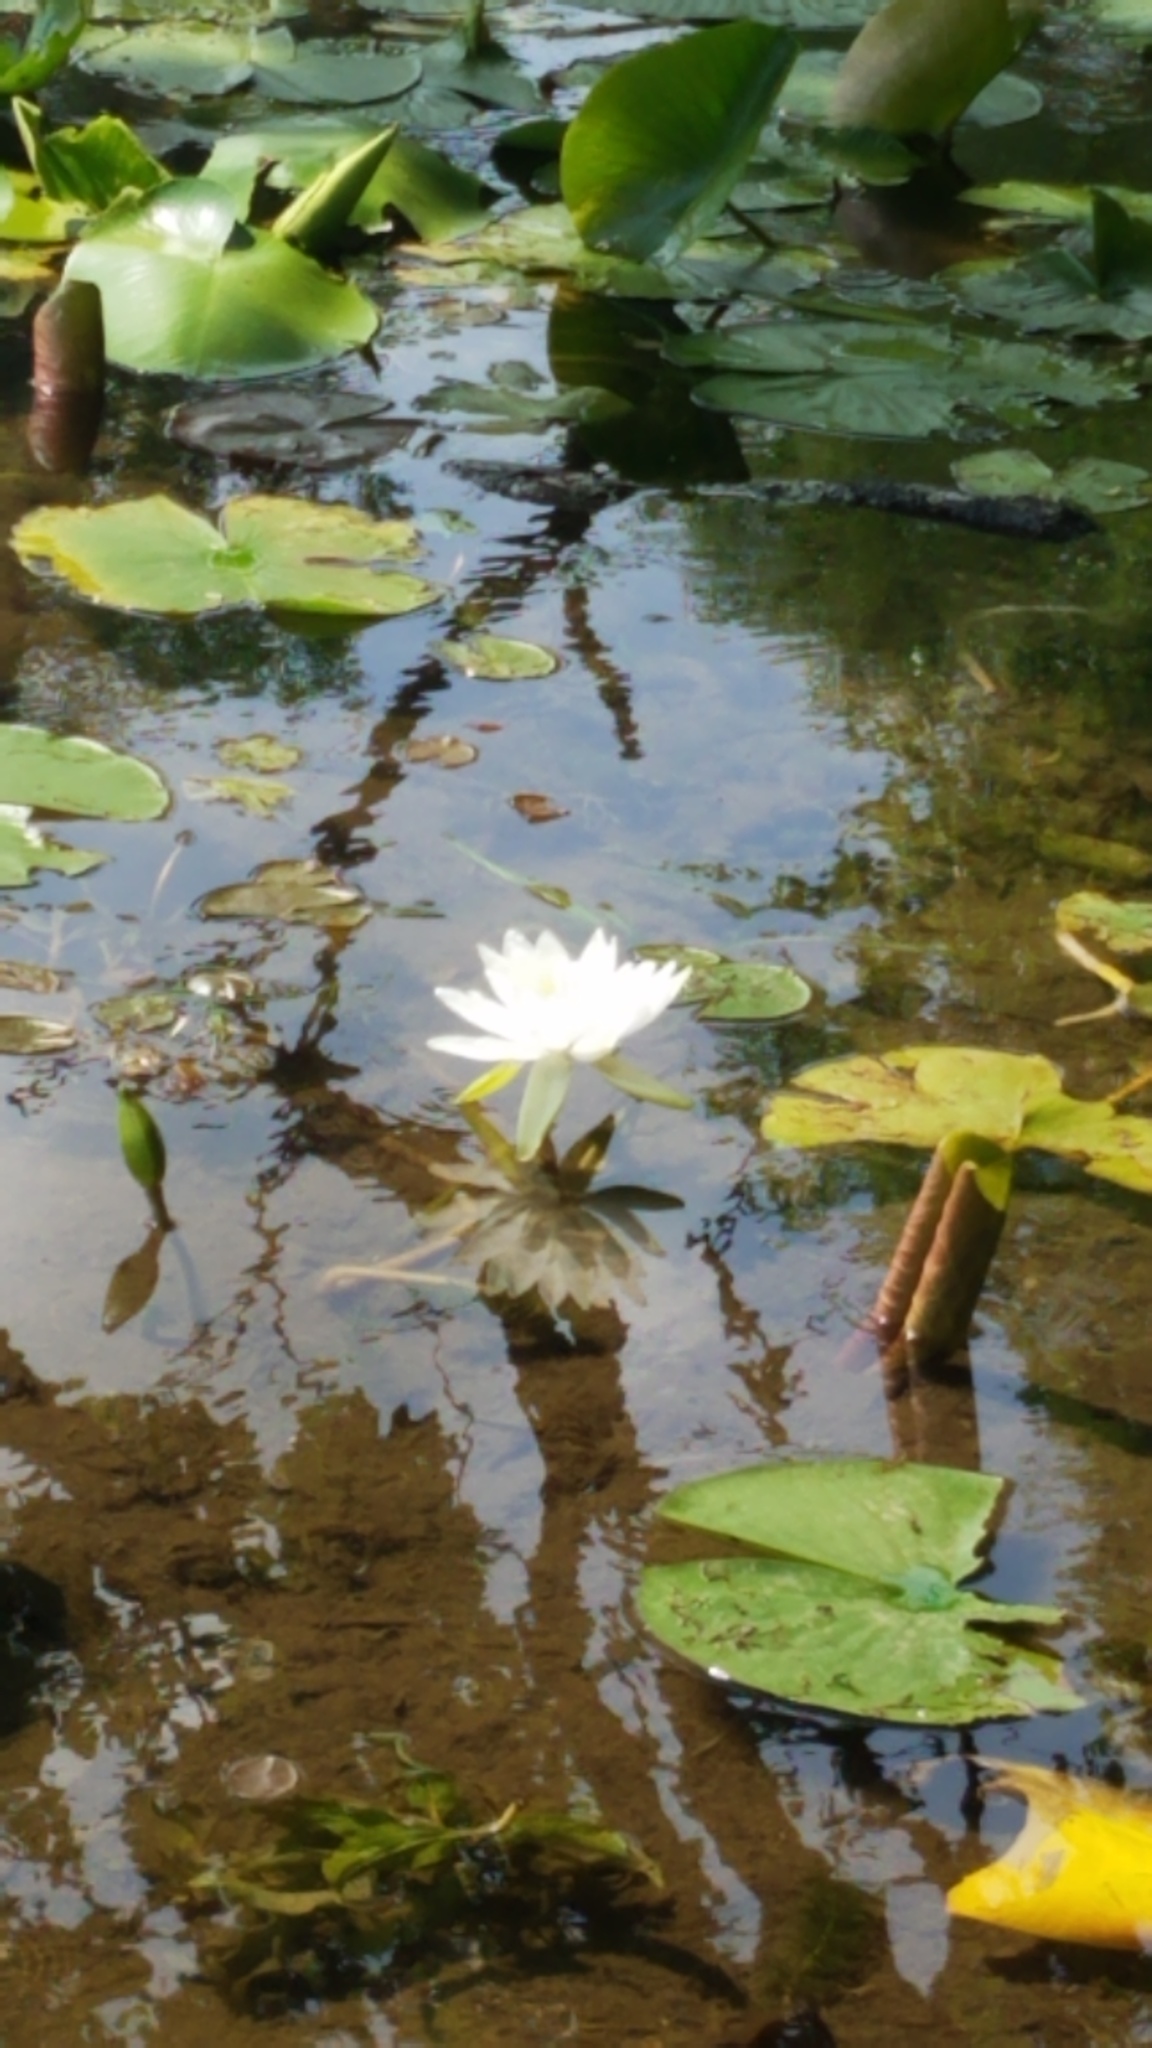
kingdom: Plantae
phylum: Tracheophyta
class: Magnoliopsida
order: Nymphaeales
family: Nymphaeaceae
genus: Nymphaea
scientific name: Nymphaea odorata
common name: Fragrant water-lily
